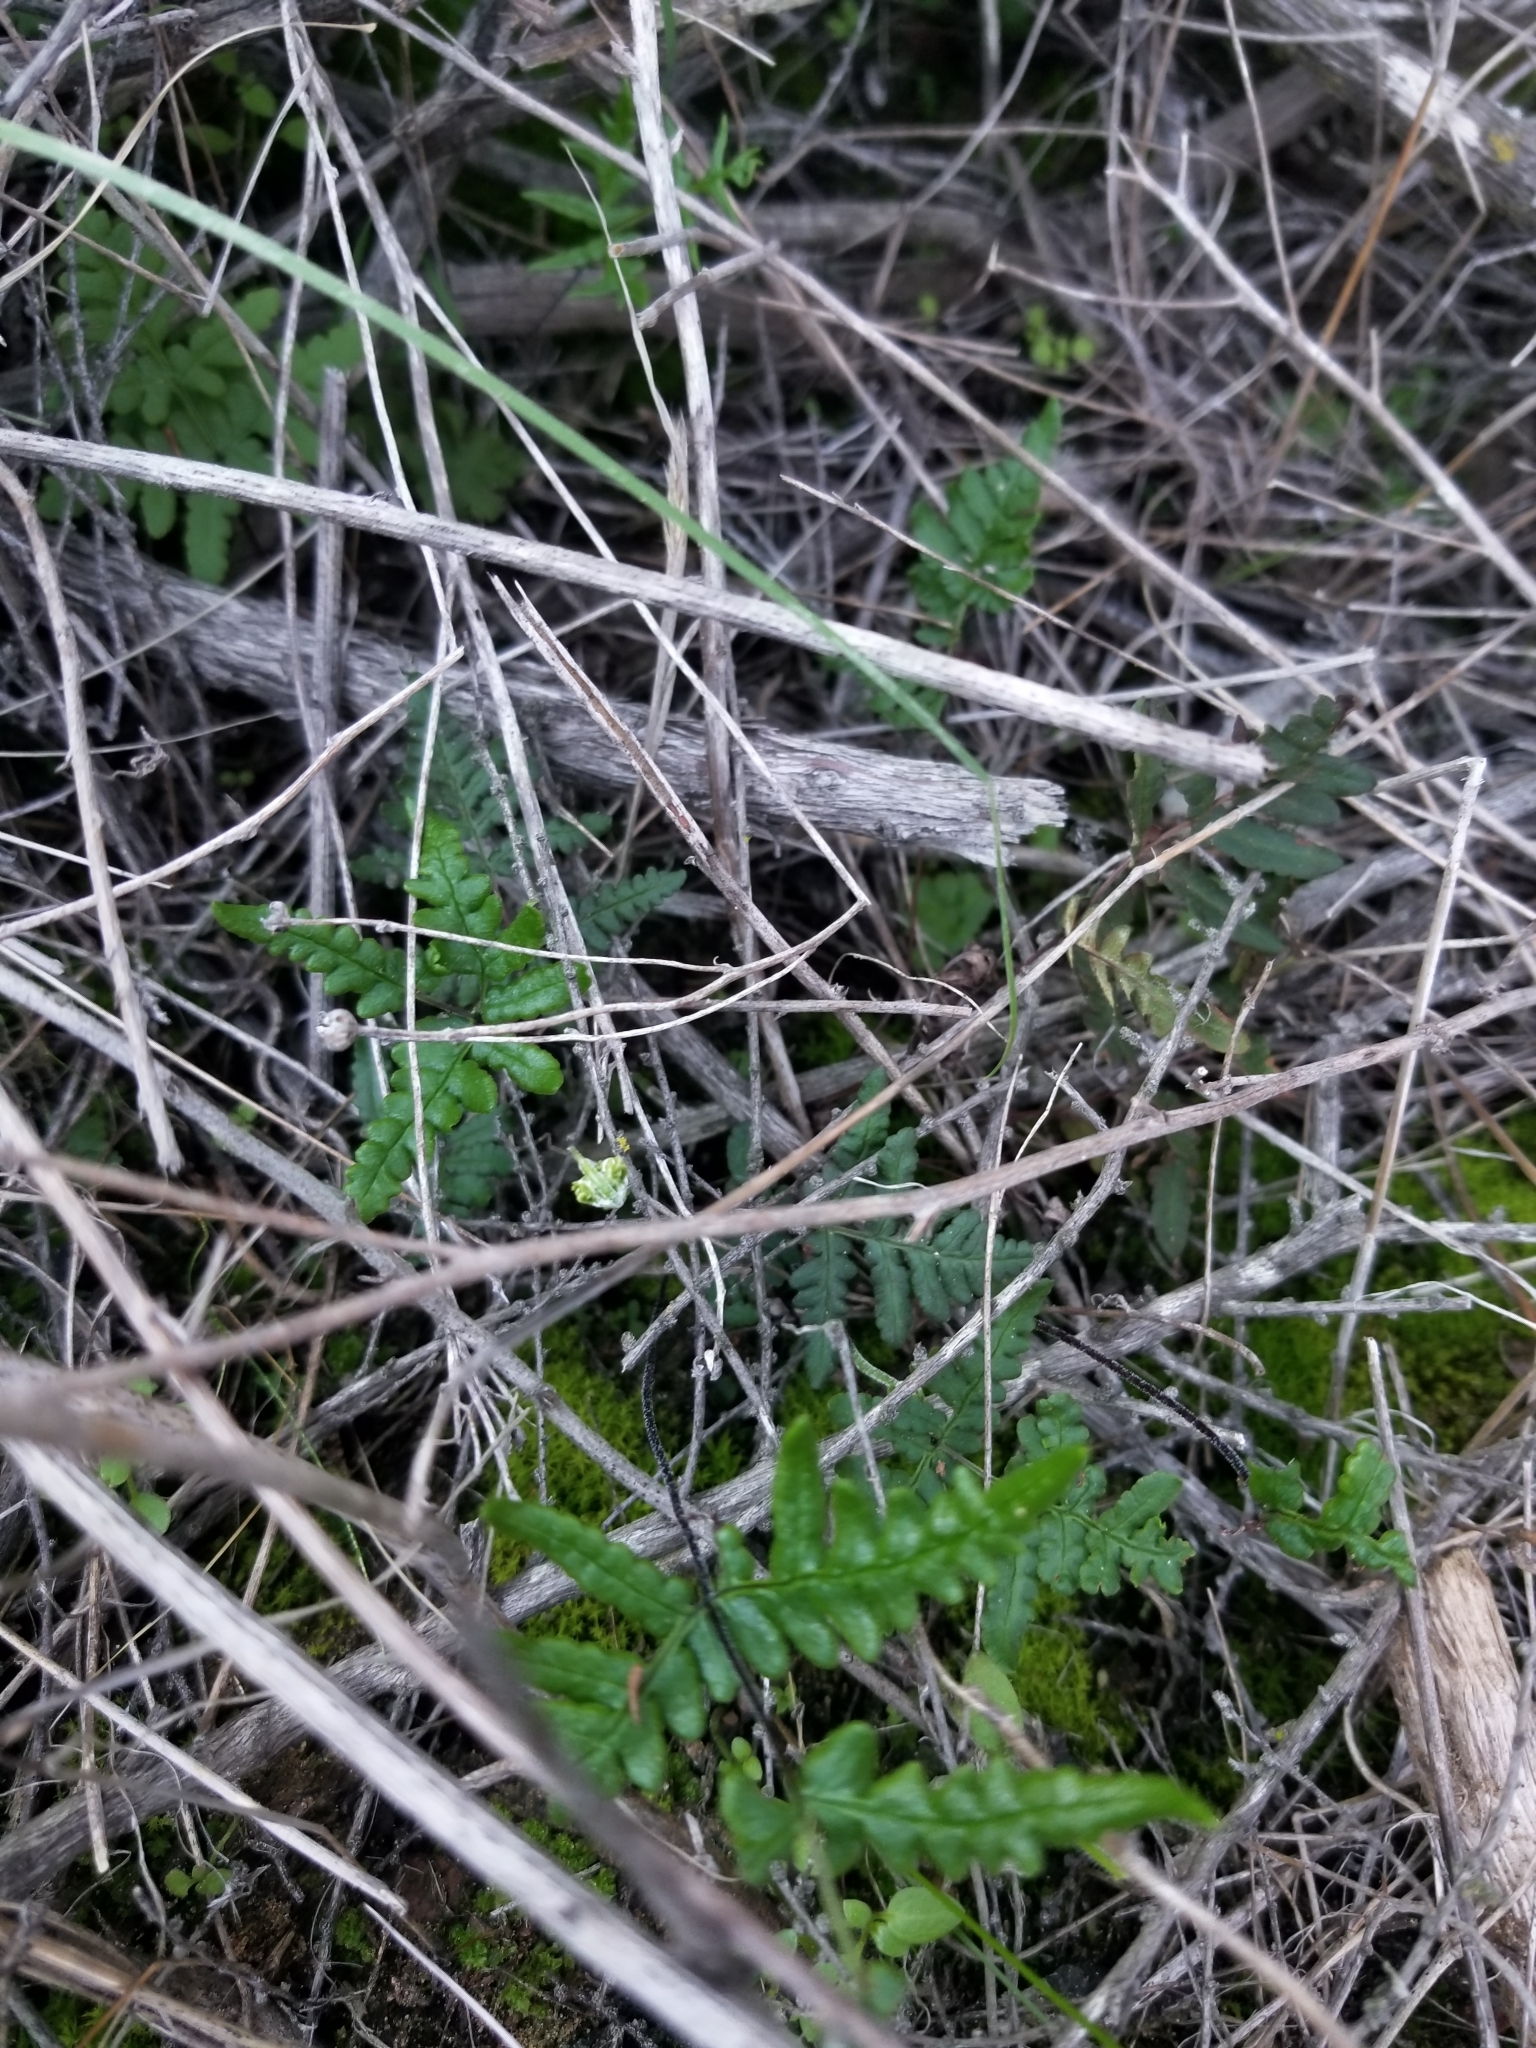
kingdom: Plantae
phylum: Tracheophyta
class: Polypodiopsida
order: Polypodiales
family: Pteridaceae
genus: Pentagramma
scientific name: Pentagramma viscosa
